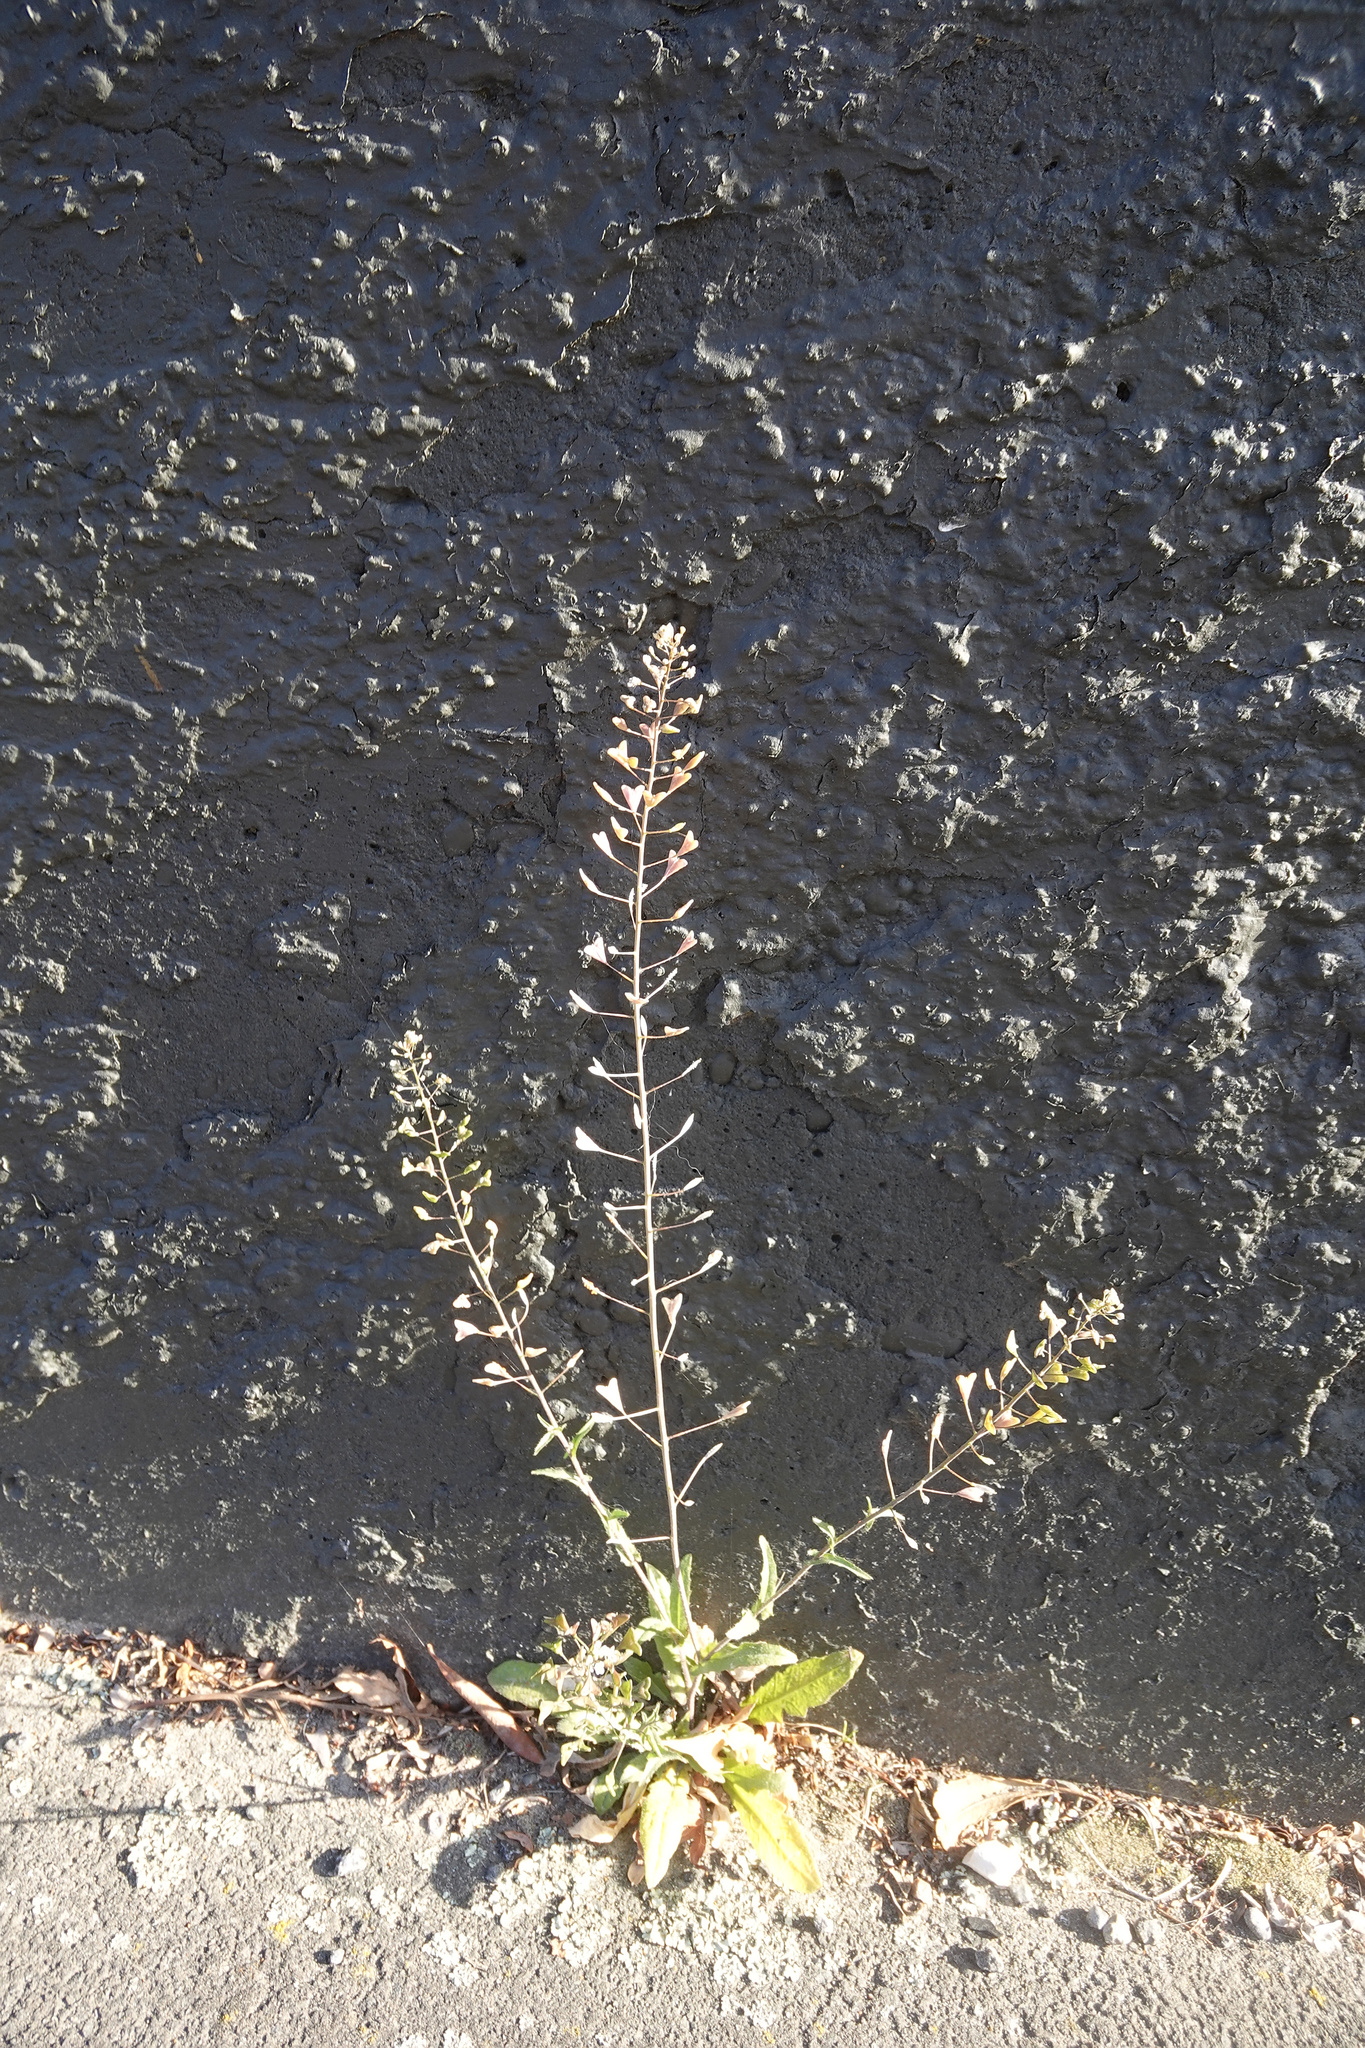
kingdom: Plantae
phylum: Tracheophyta
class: Magnoliopsida
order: Brassicales
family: Brassicaceae
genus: Capsella
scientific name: Capsella bursa-pastoris
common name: Shepherd's purse
